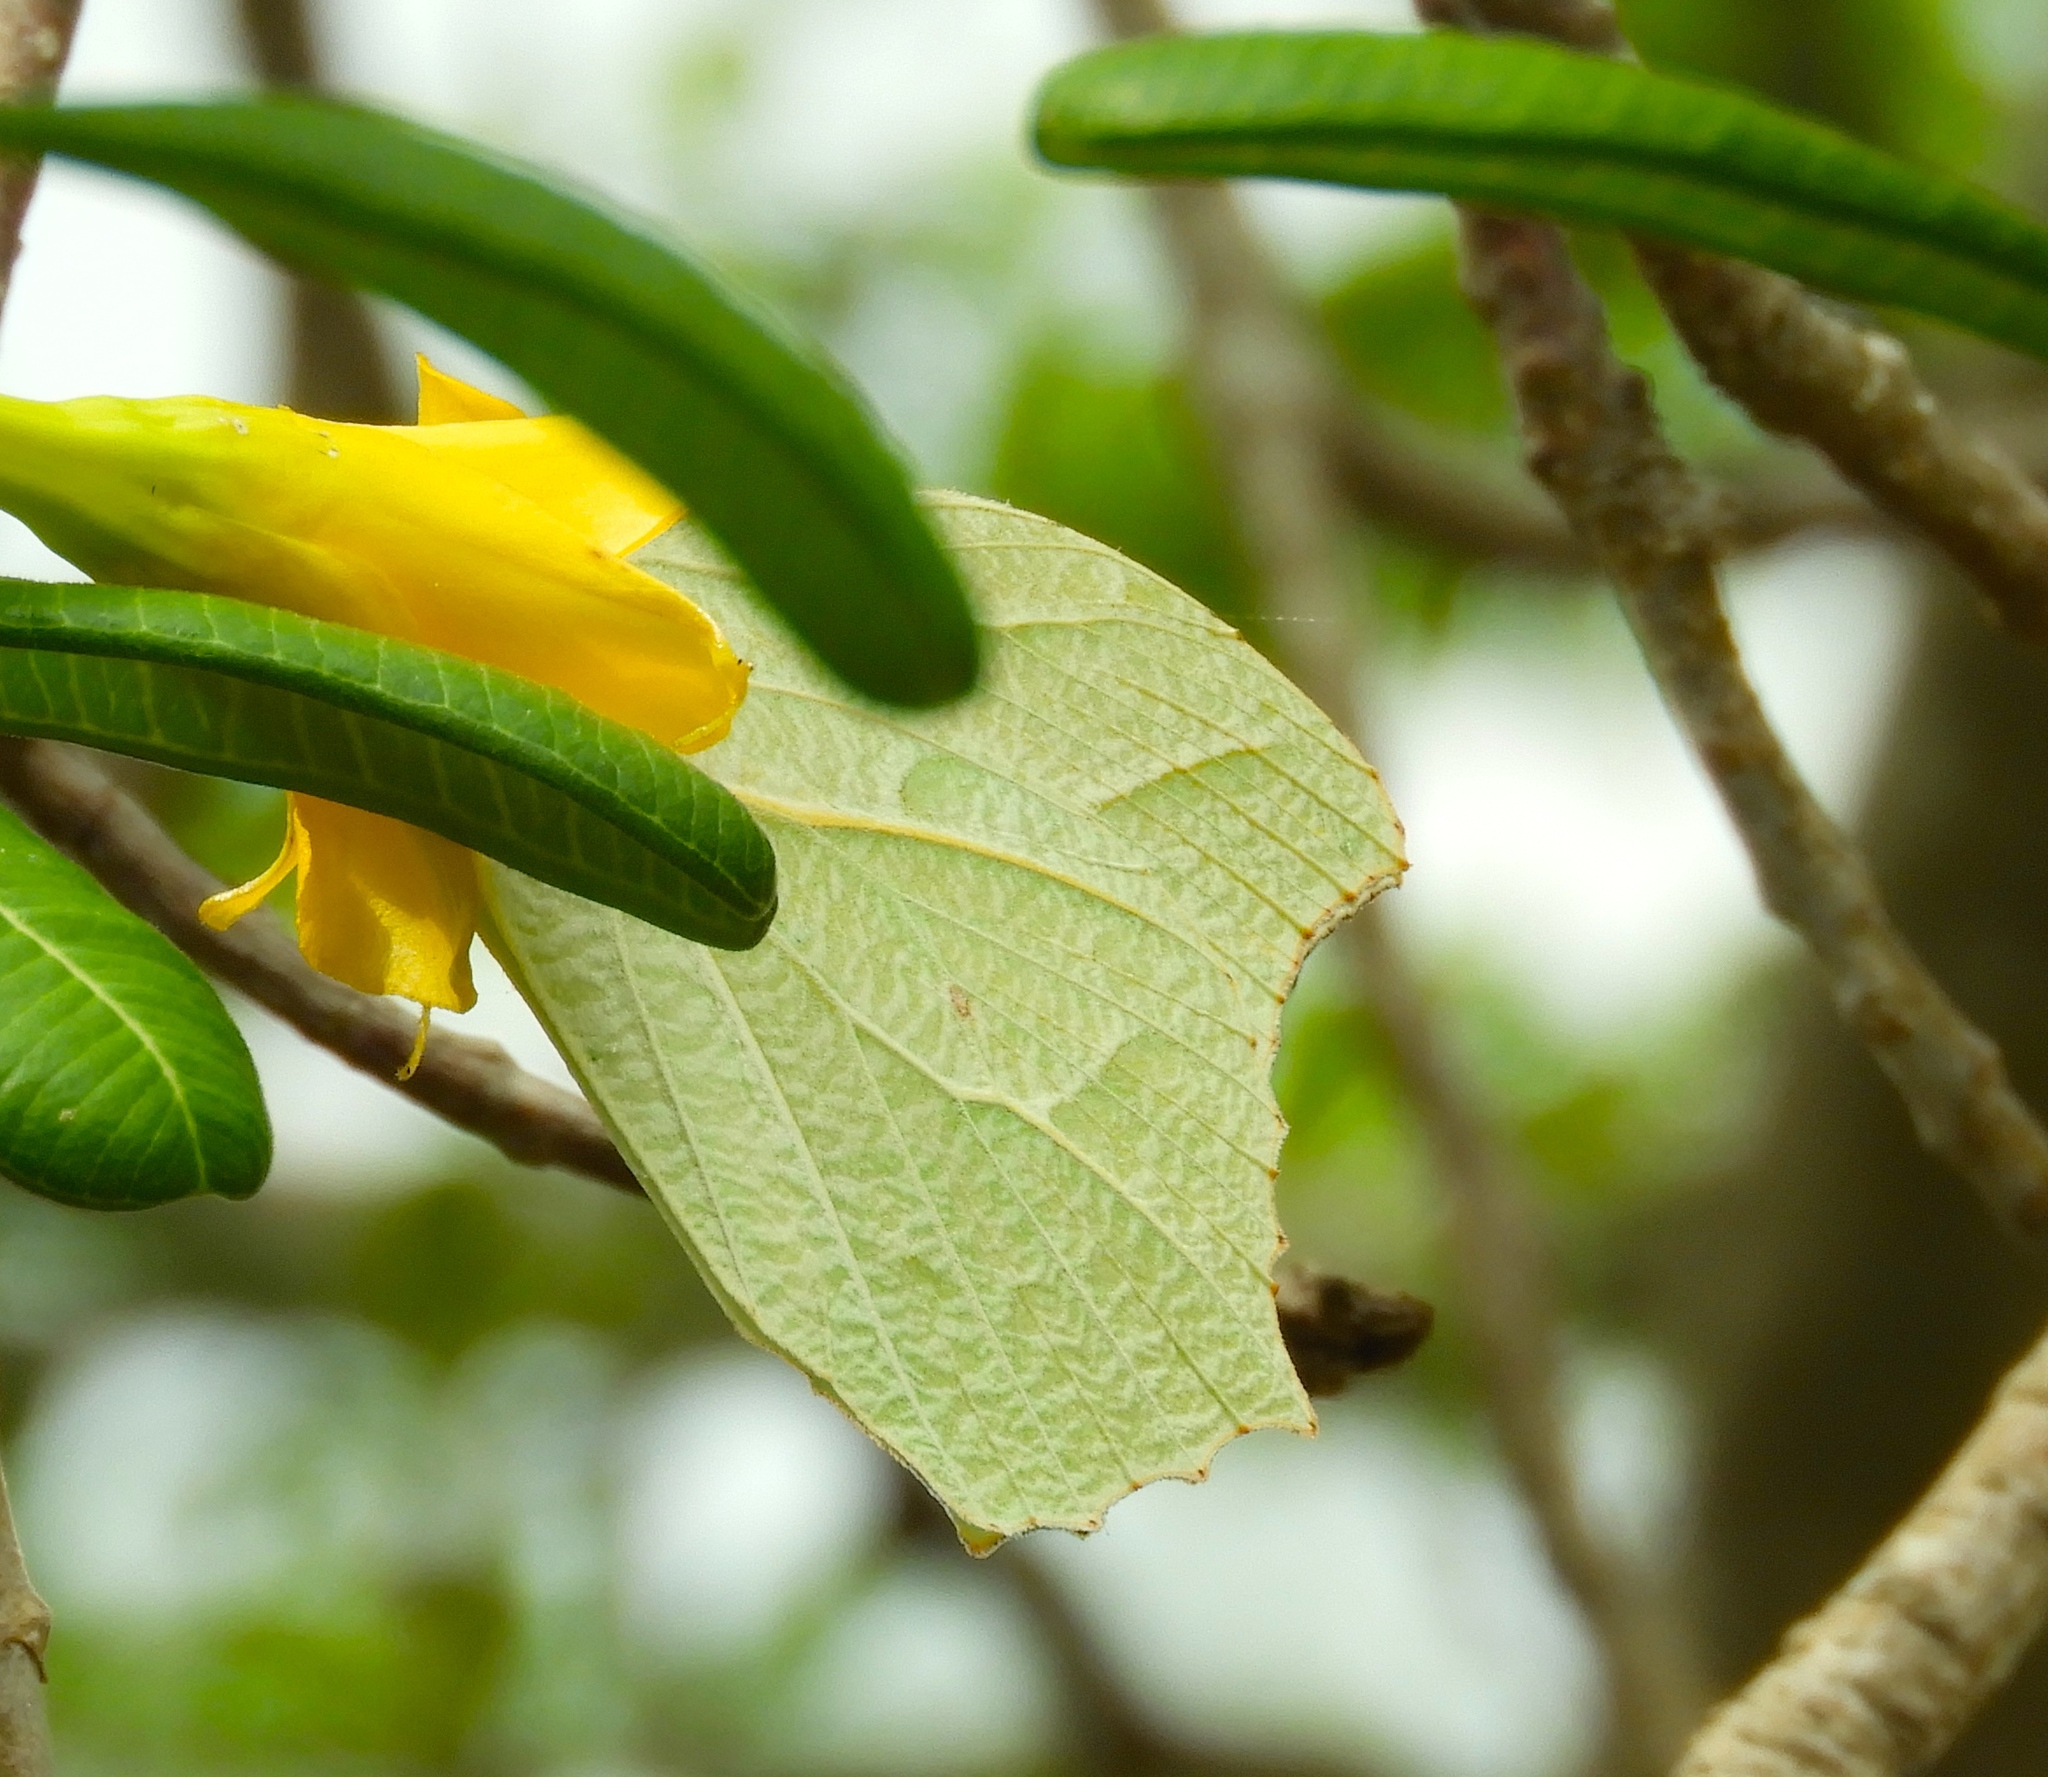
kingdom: Animalia
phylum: Arthropoda
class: Insecta
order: Lepidoptera
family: Pieridae
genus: Anteos
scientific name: Anteos clorinde
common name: White angled sulphur
